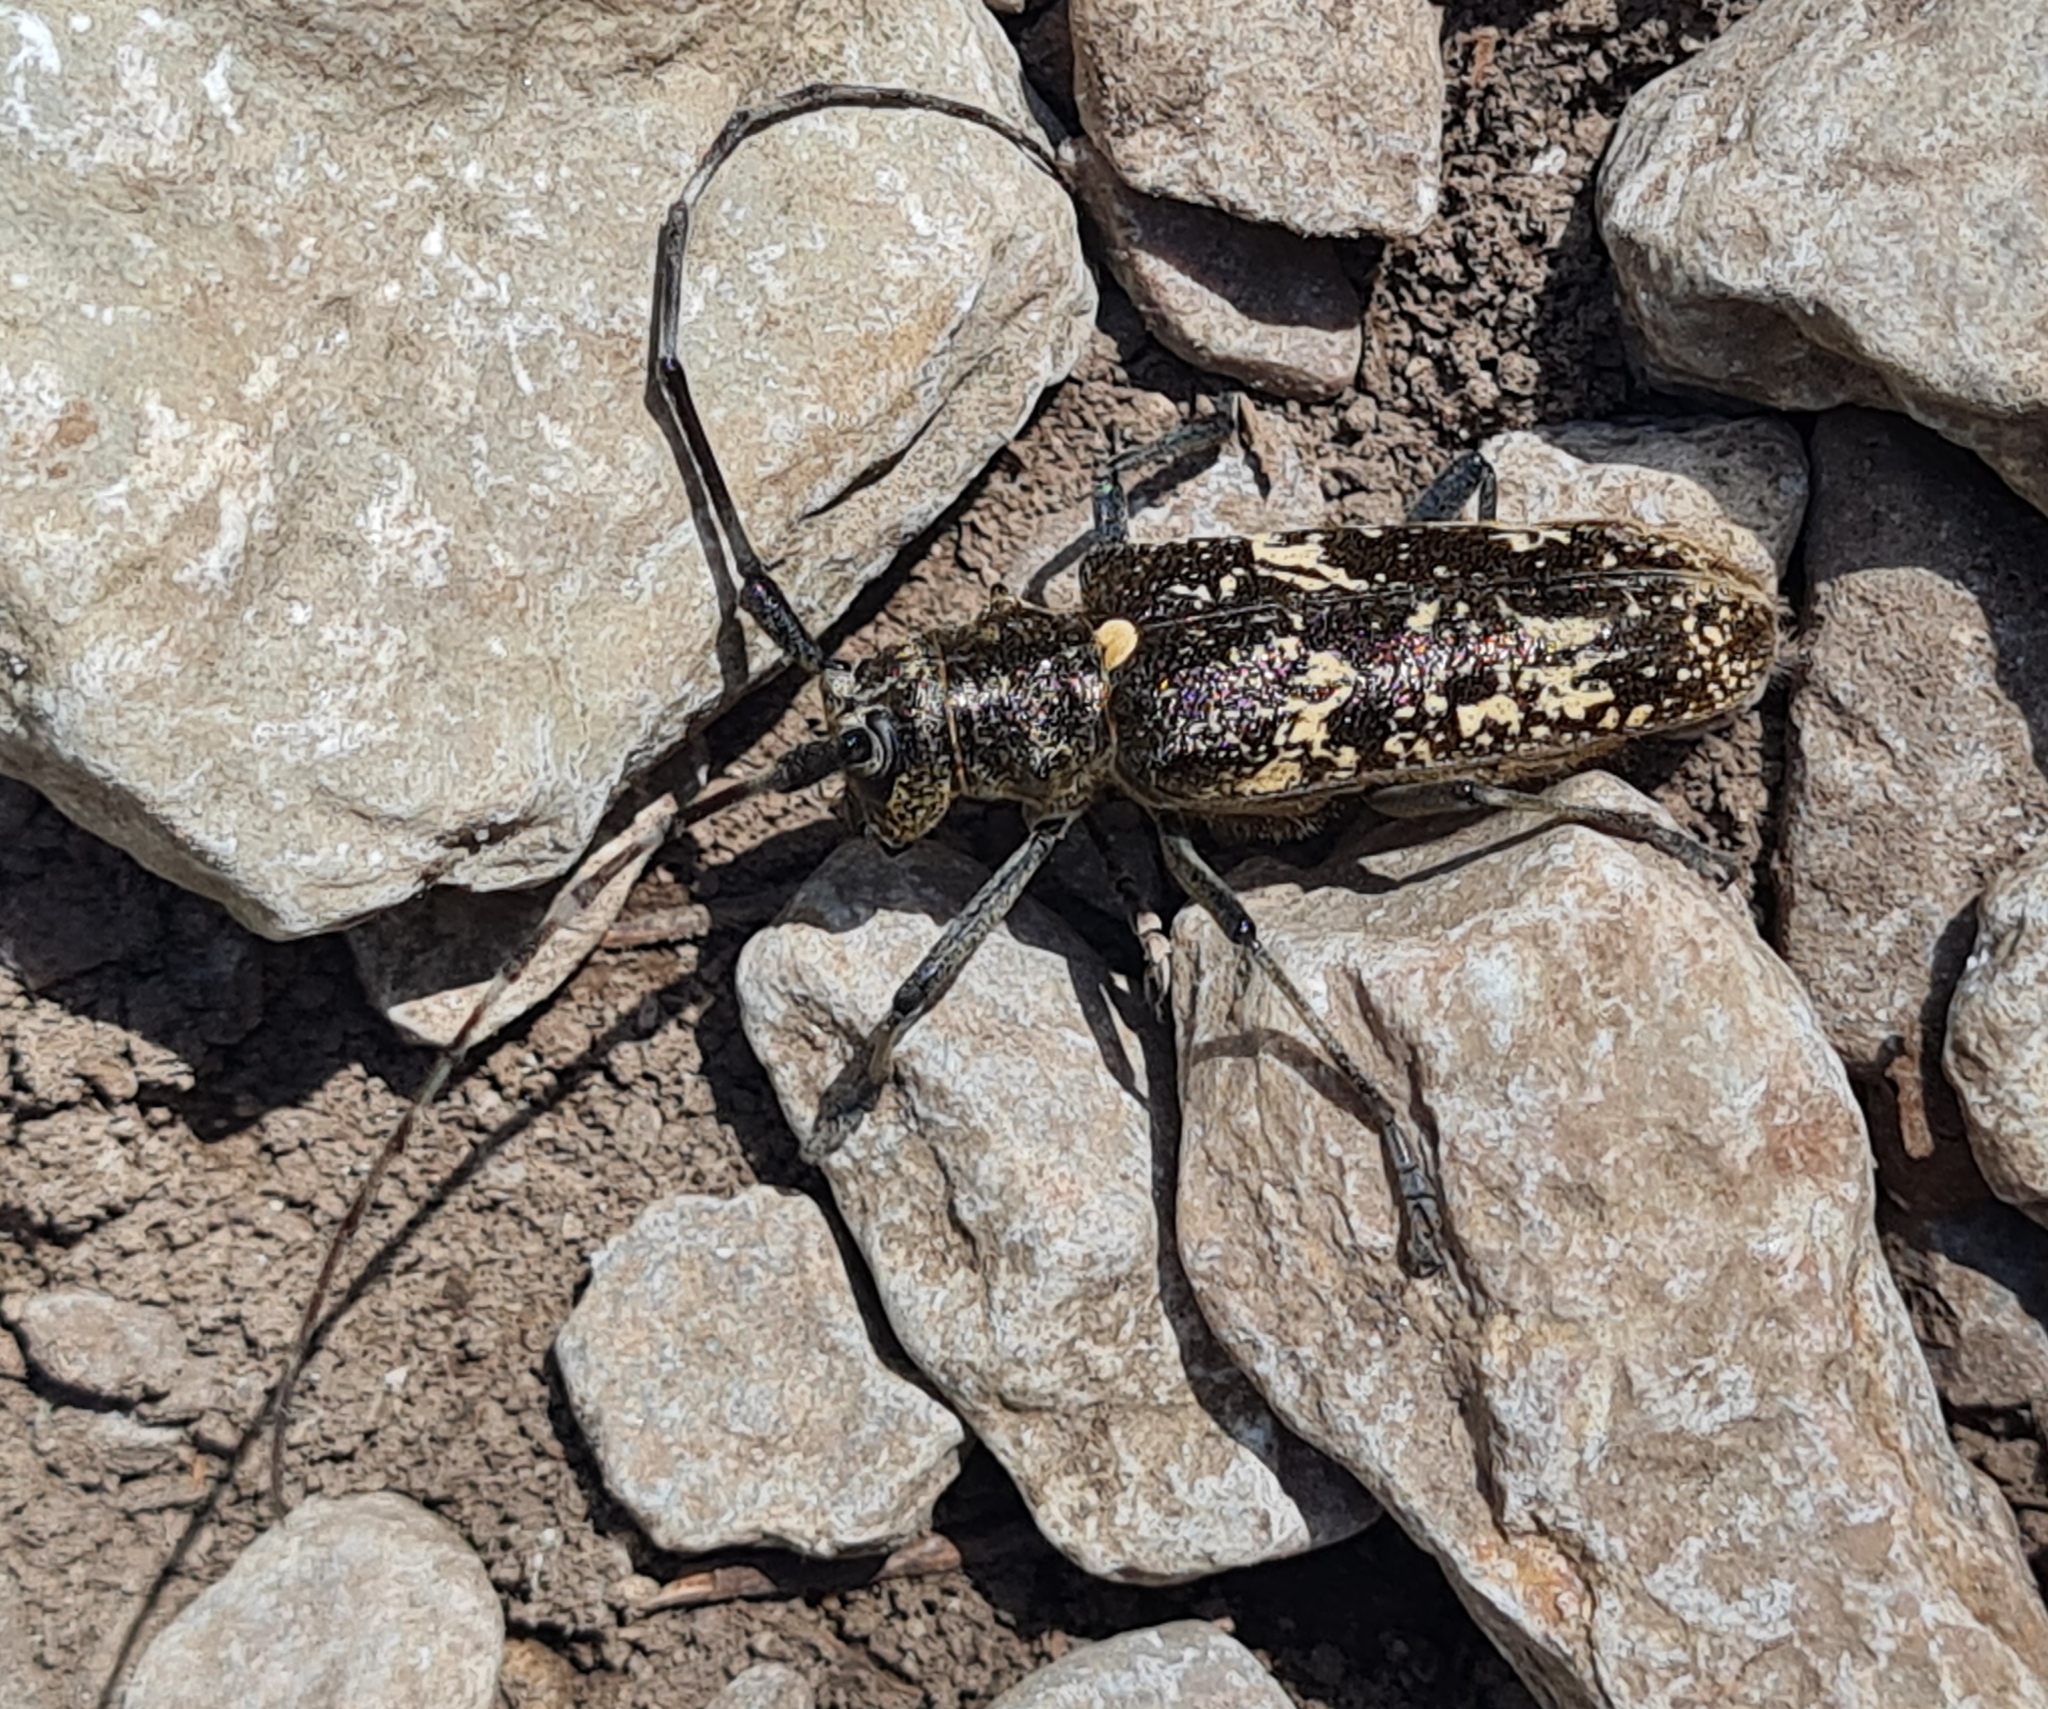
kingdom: Animalia
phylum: Arthropoda
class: Insecta
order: Coleoptera
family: Cerambycidae
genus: Monochamus
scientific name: Monochamus sartor
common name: Pine sawyer
